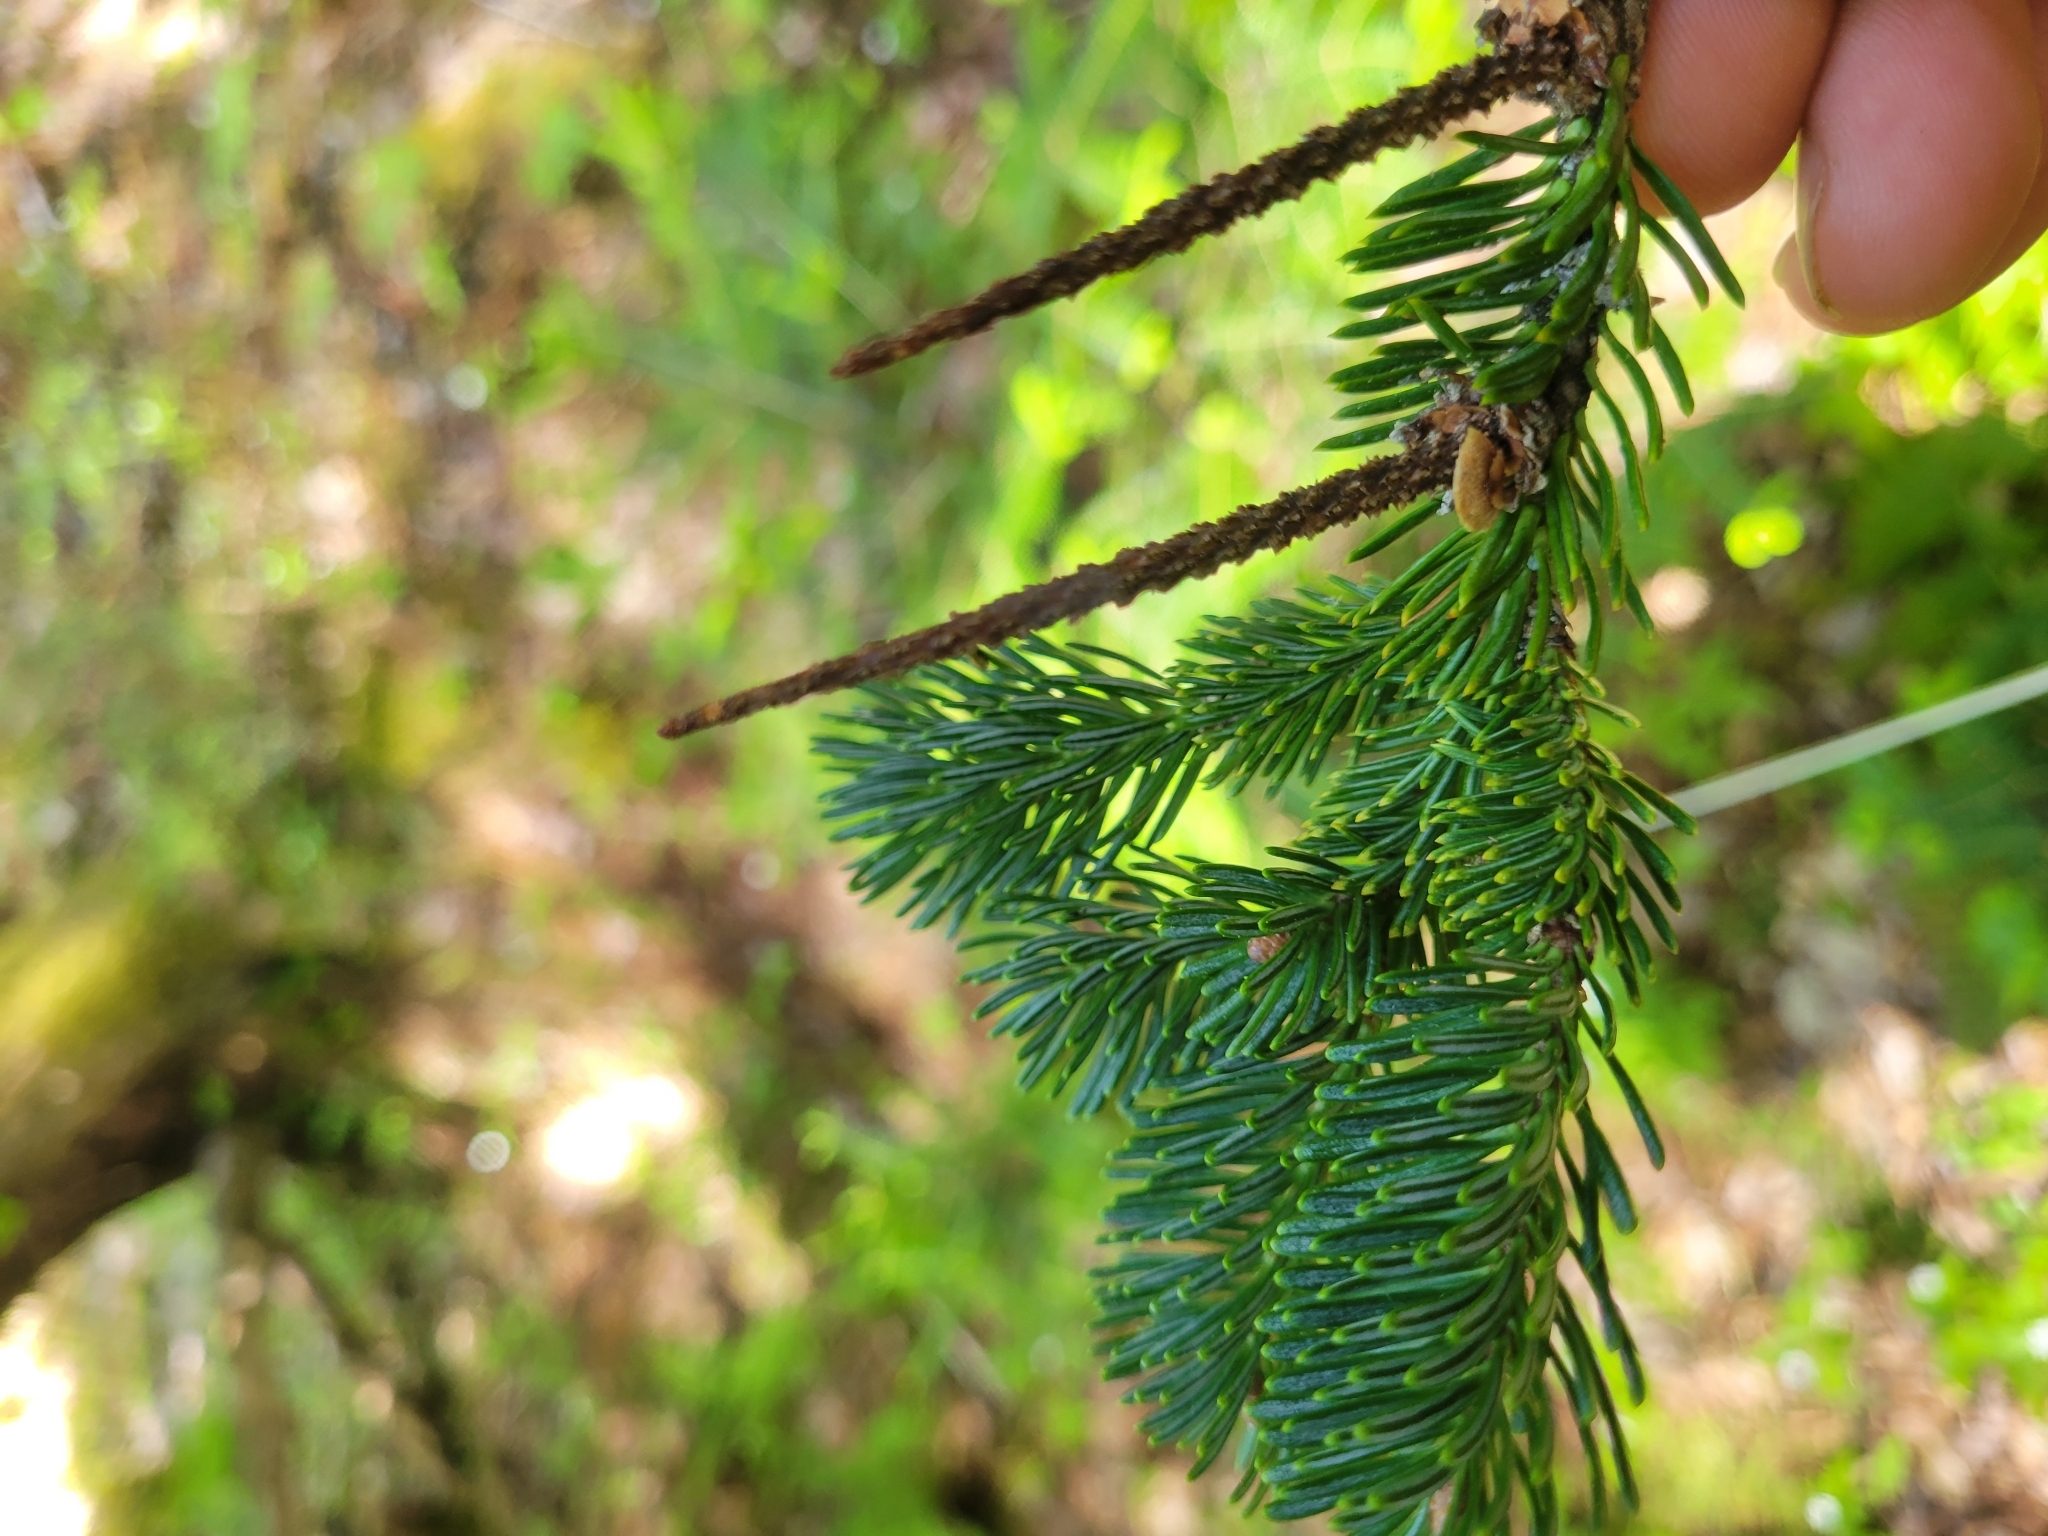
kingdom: Plantae
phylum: Tracheophyta
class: Pinopsida
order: Pinales
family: Pinaceae
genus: Abies
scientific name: Abies balsamea
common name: Balsam fir
